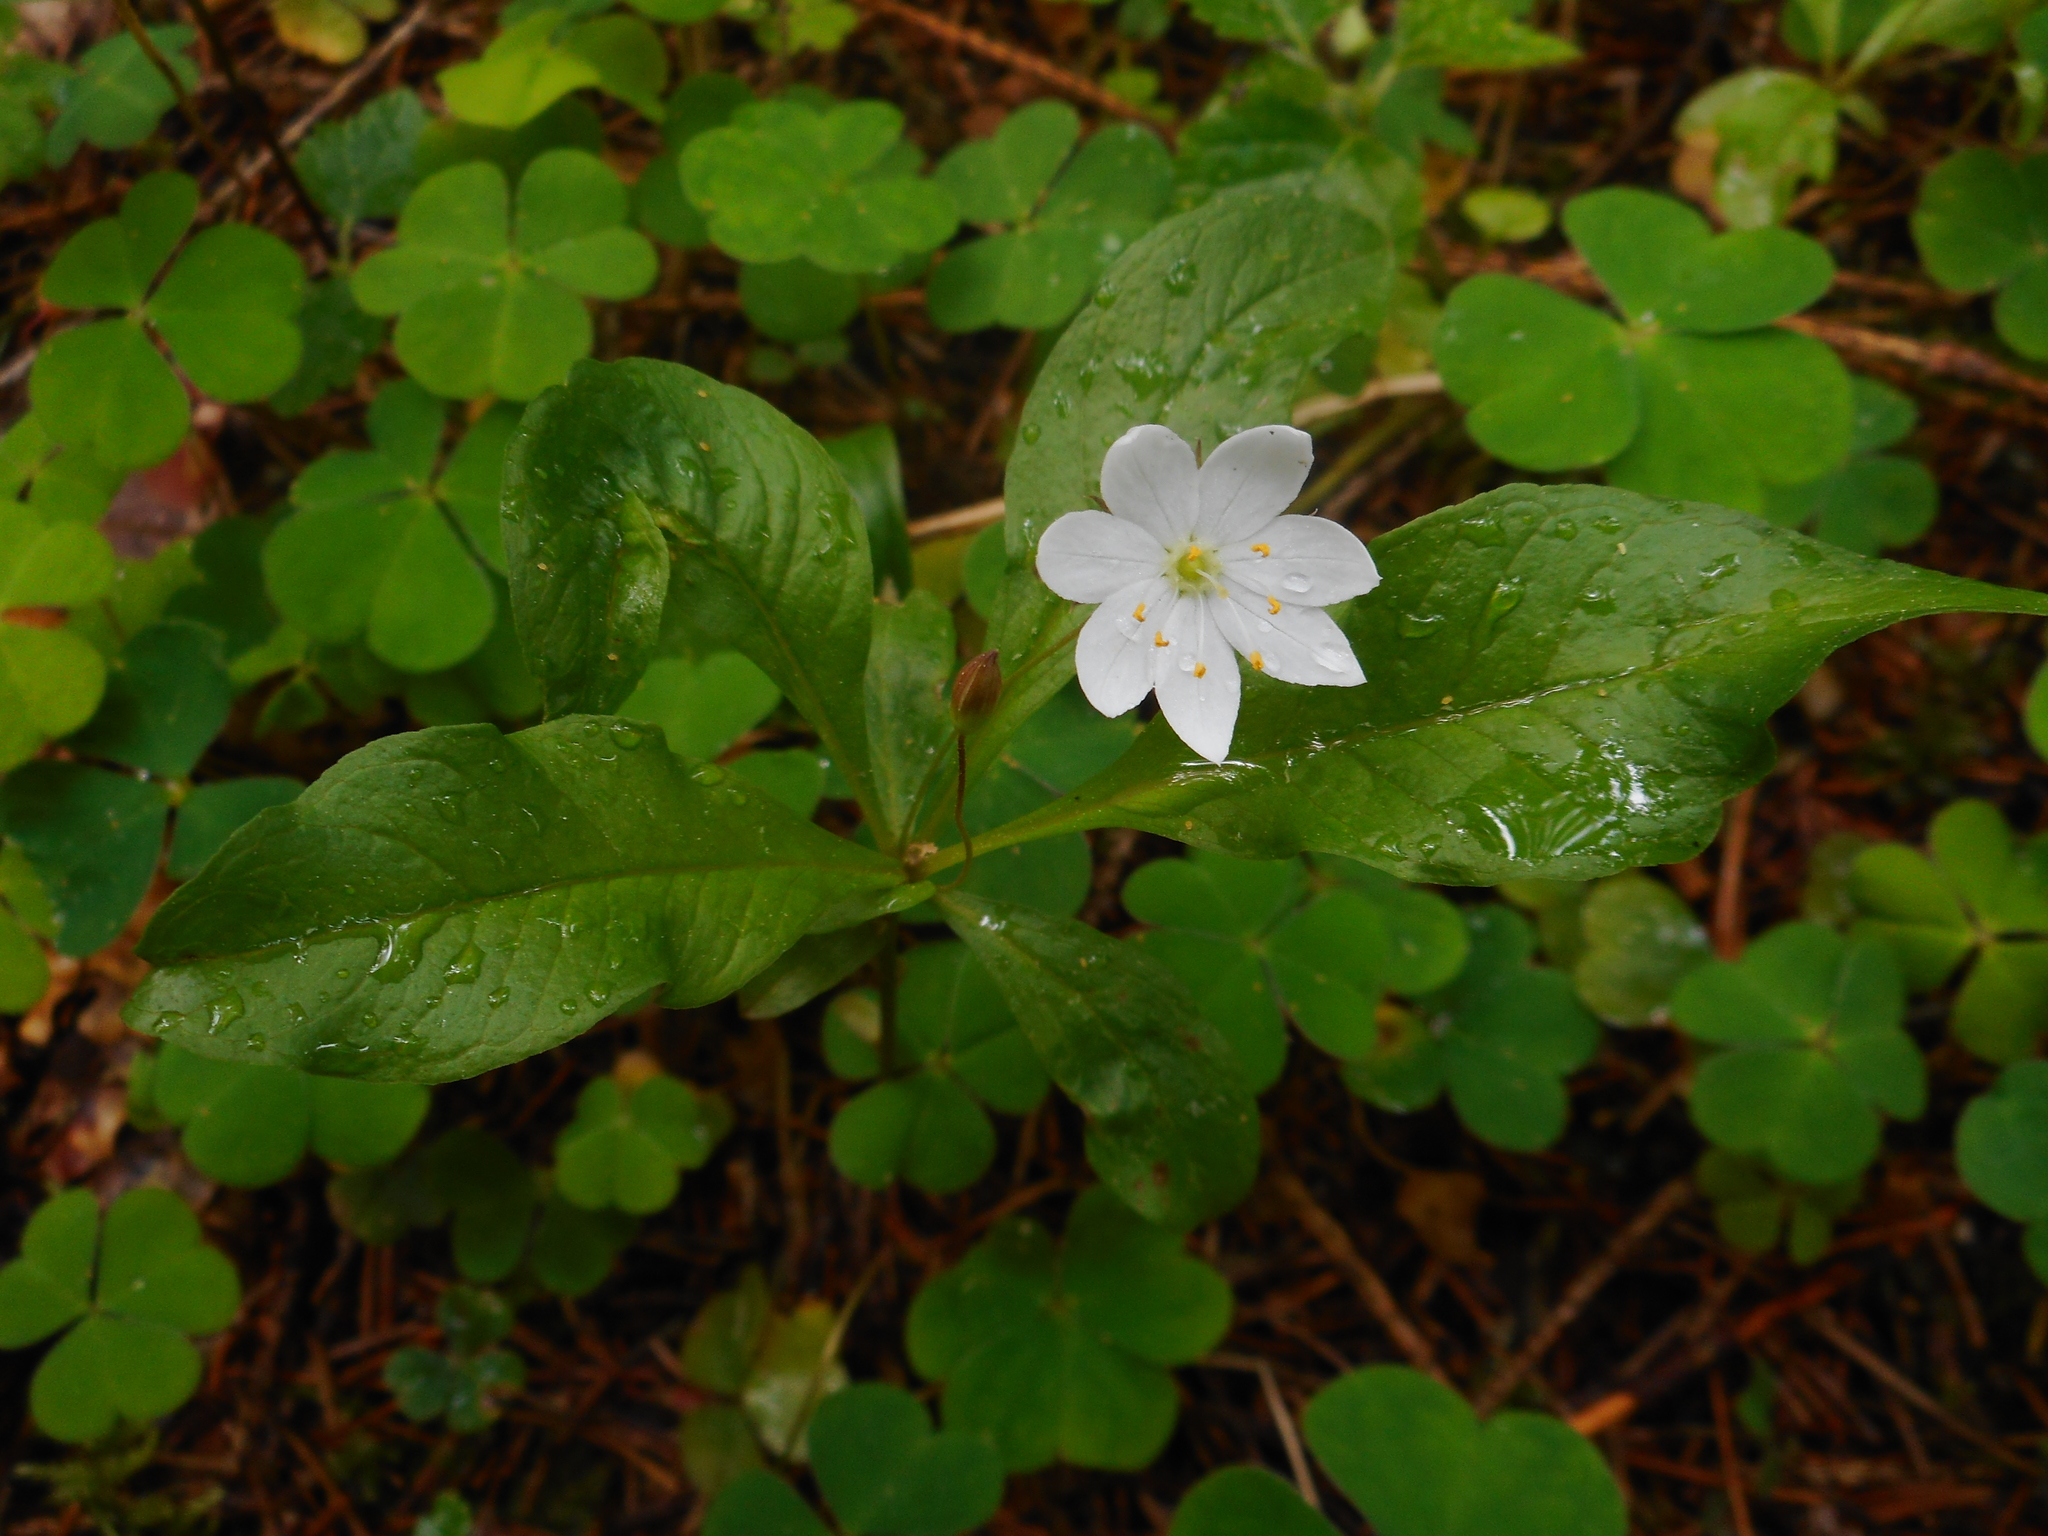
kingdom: Plantae
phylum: Tracheophyta
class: Magnoliopsida
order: Ericales
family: Primulaceae
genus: Lysimachia
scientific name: Lysimachia europaea
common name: Arctic starflower
